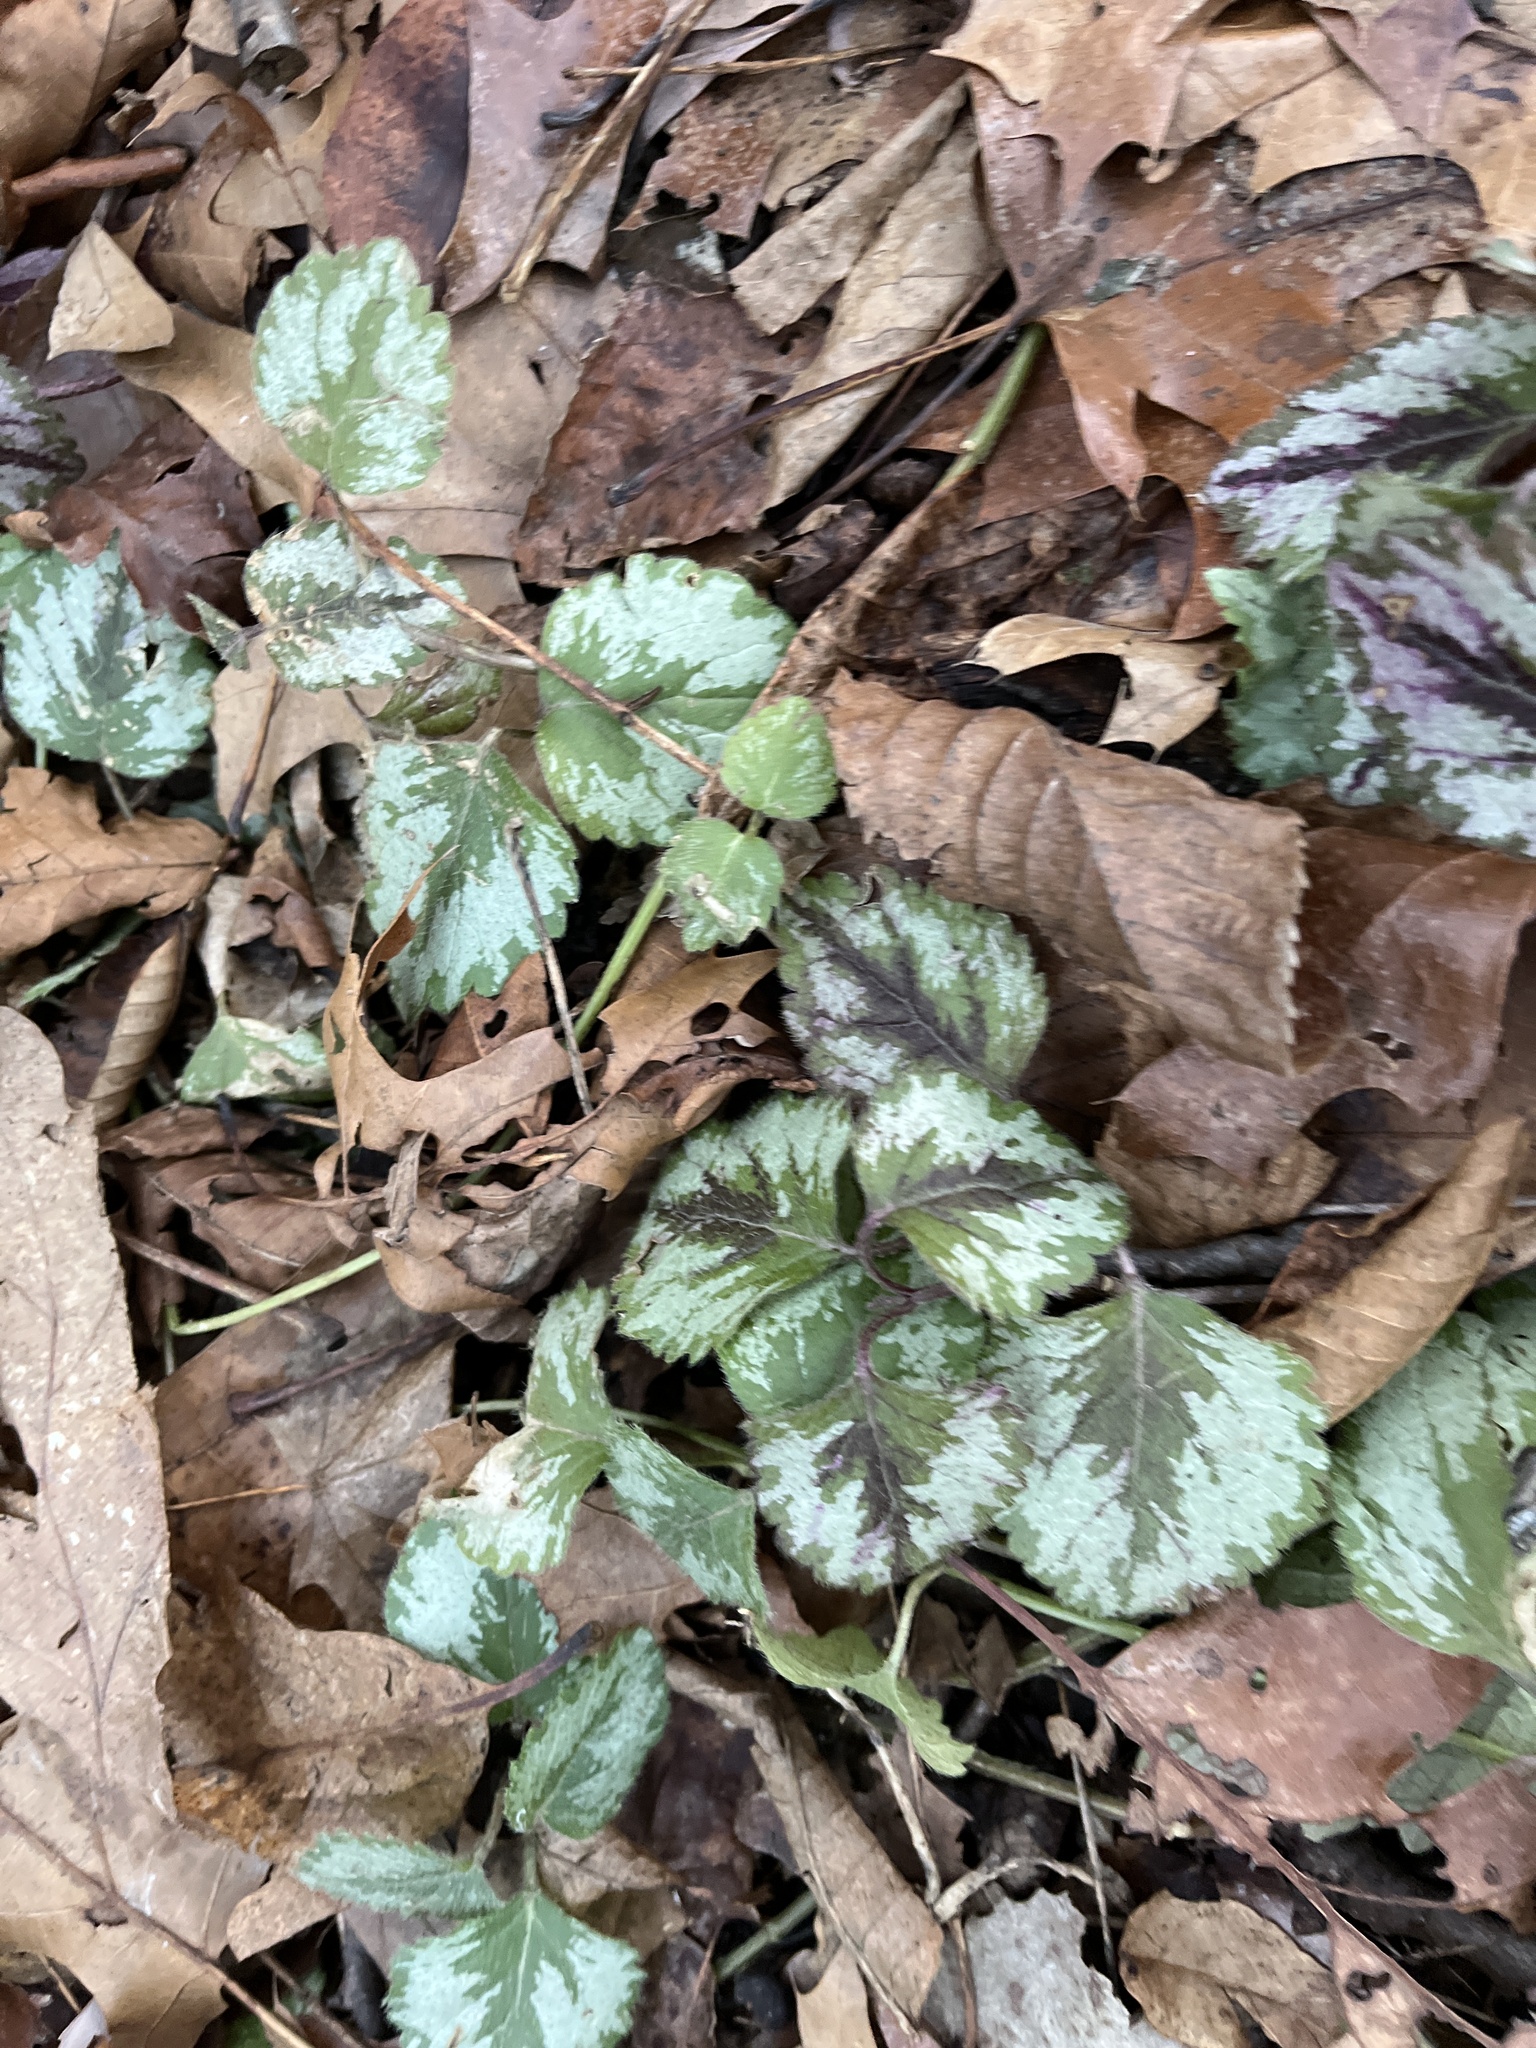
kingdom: Plantae
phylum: Tracheophyta
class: Magnoliopsida
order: Lamiales
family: Lamiaceae
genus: Lamium
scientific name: Lamium galeobdolon
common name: Yellow archangel
